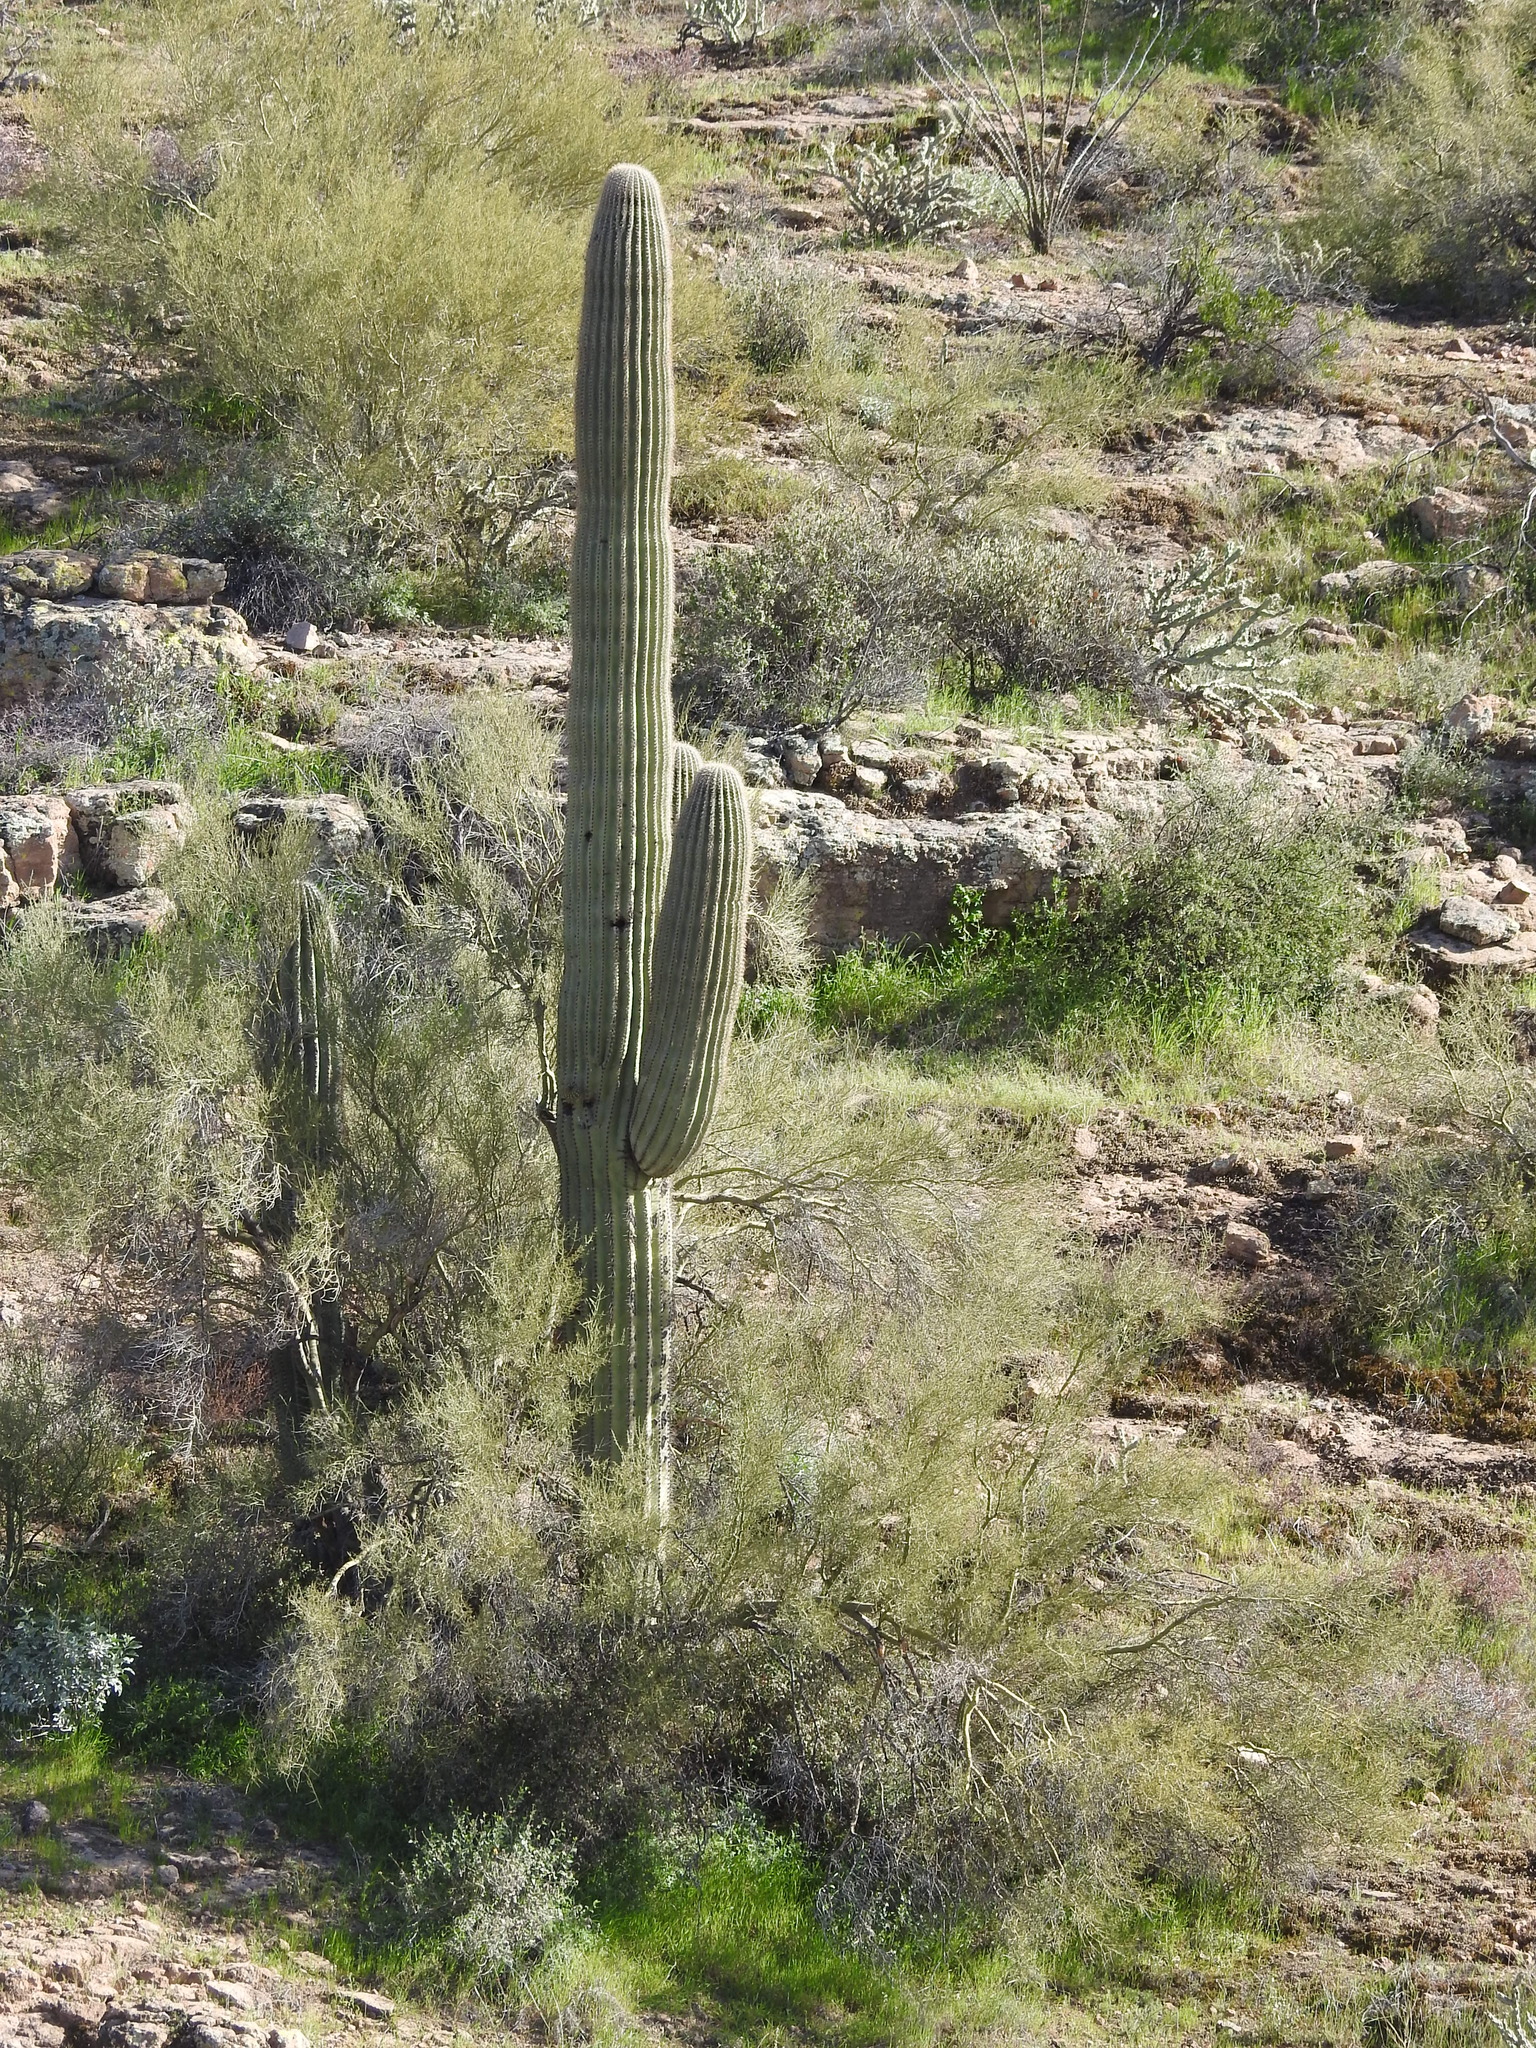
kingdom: Plantae
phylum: Tracheophyta
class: Magnoliopsida
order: Caryophyllales
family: Cactaceae
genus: Carnegiea
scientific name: Carnegiea gigantea
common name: Saguaro
